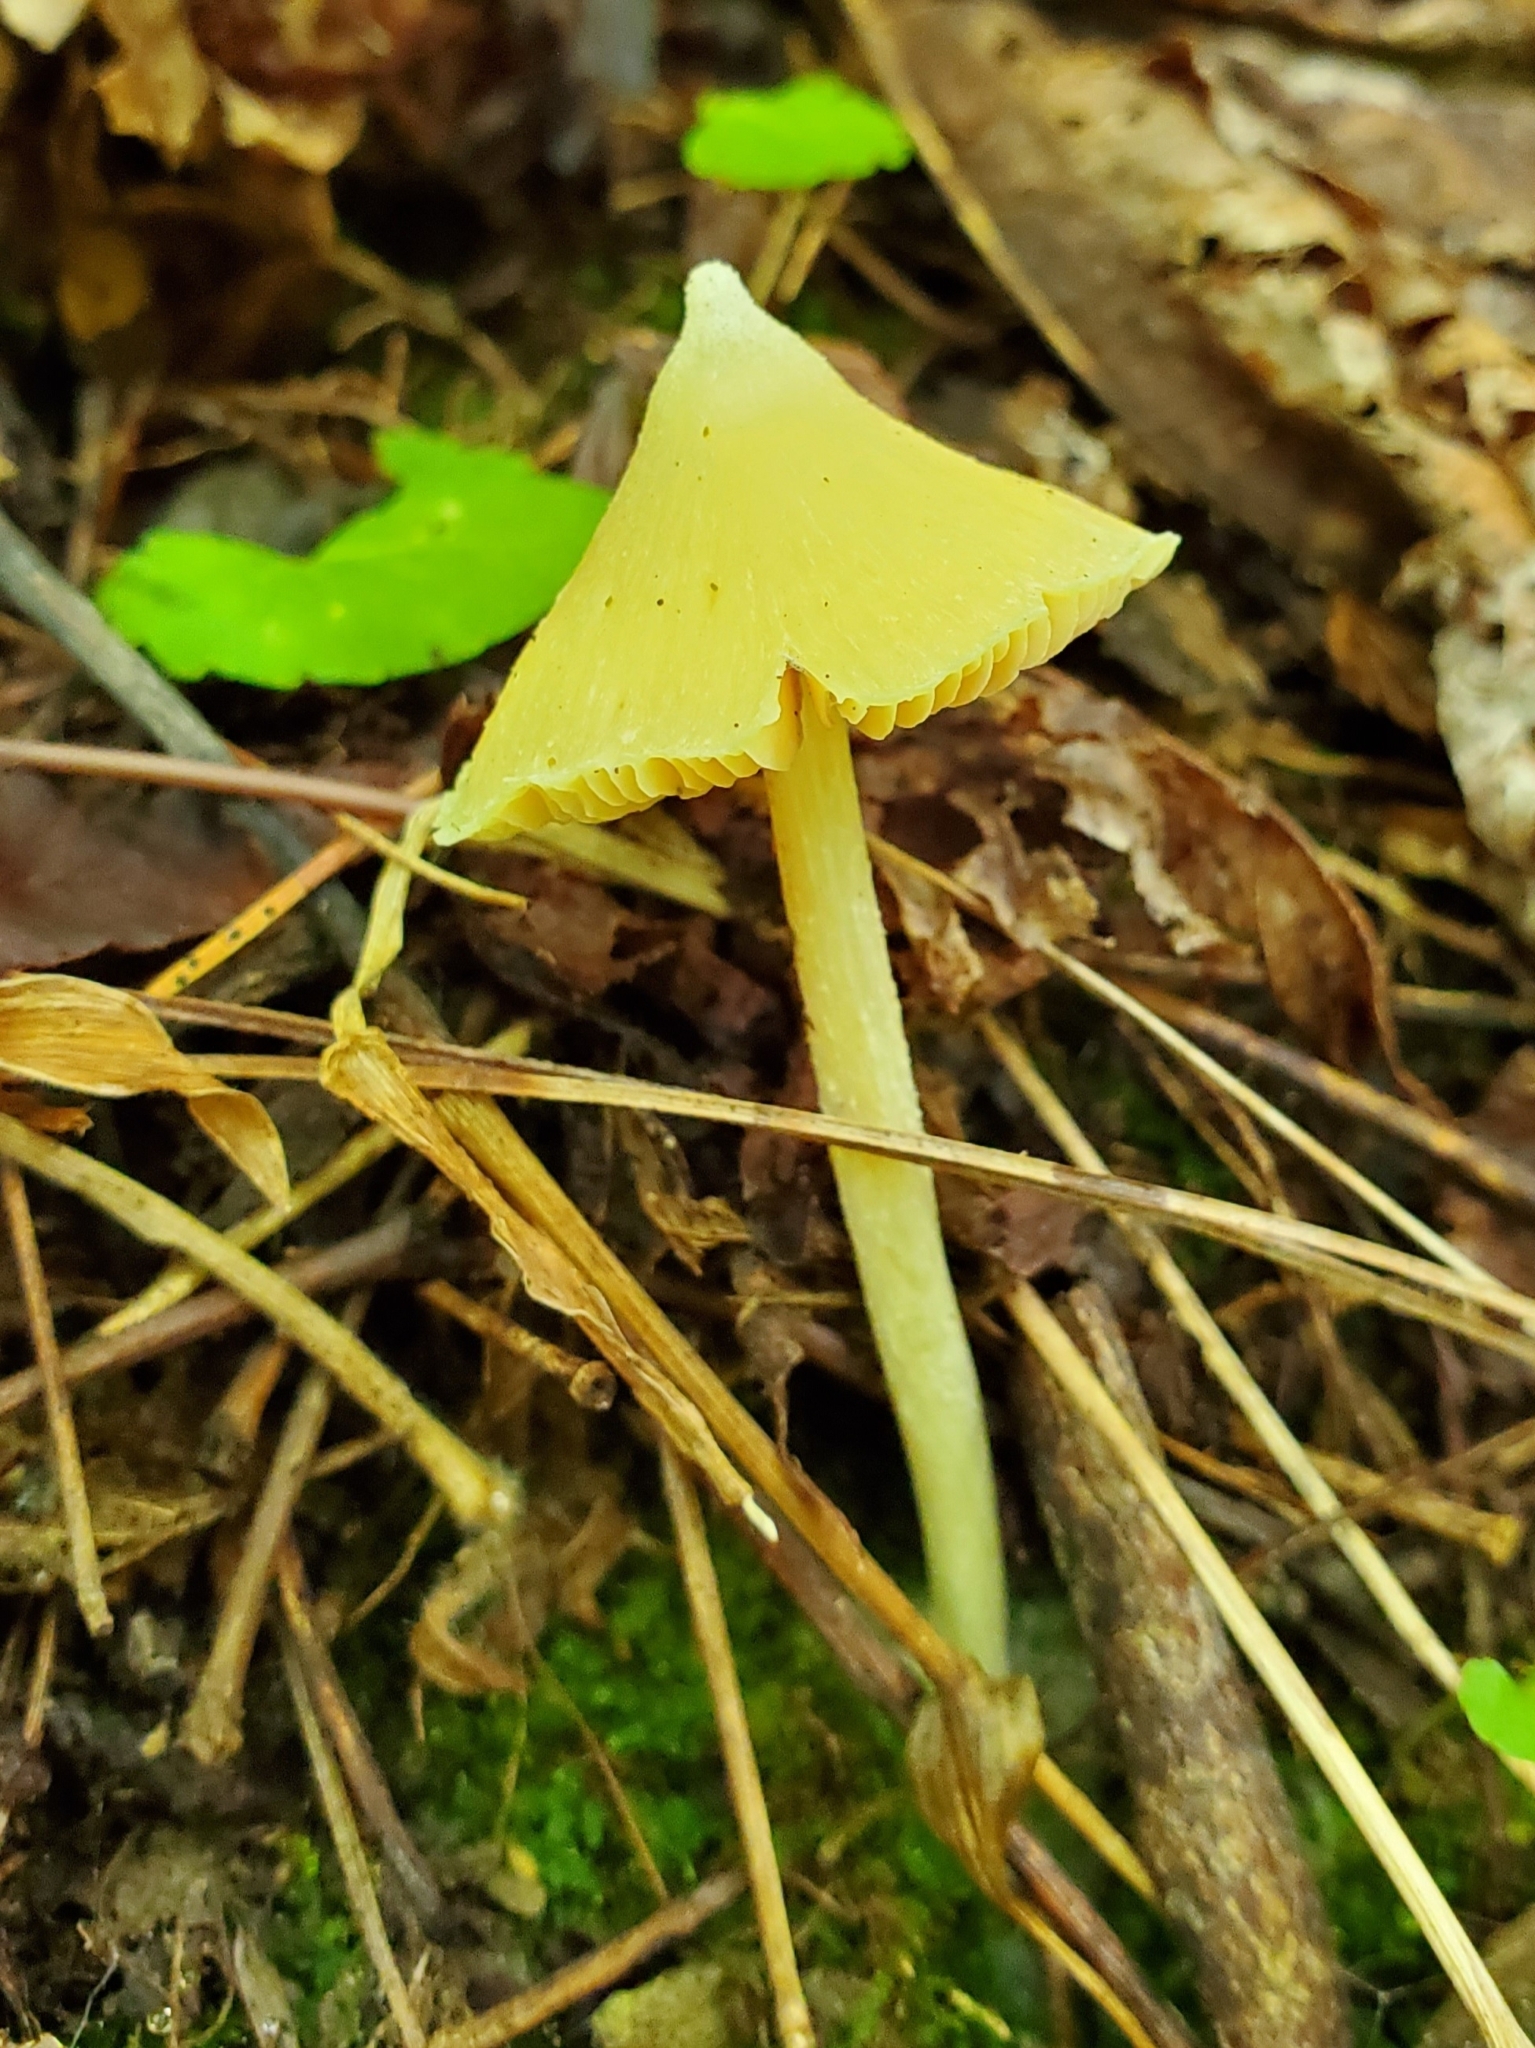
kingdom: Fungi
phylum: Basidiomycota
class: Agaricomycetes
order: Agaricales
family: Entolomataceae
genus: Entoloma
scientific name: Entoloma murrayi
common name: Yellow unicorn entoloma
